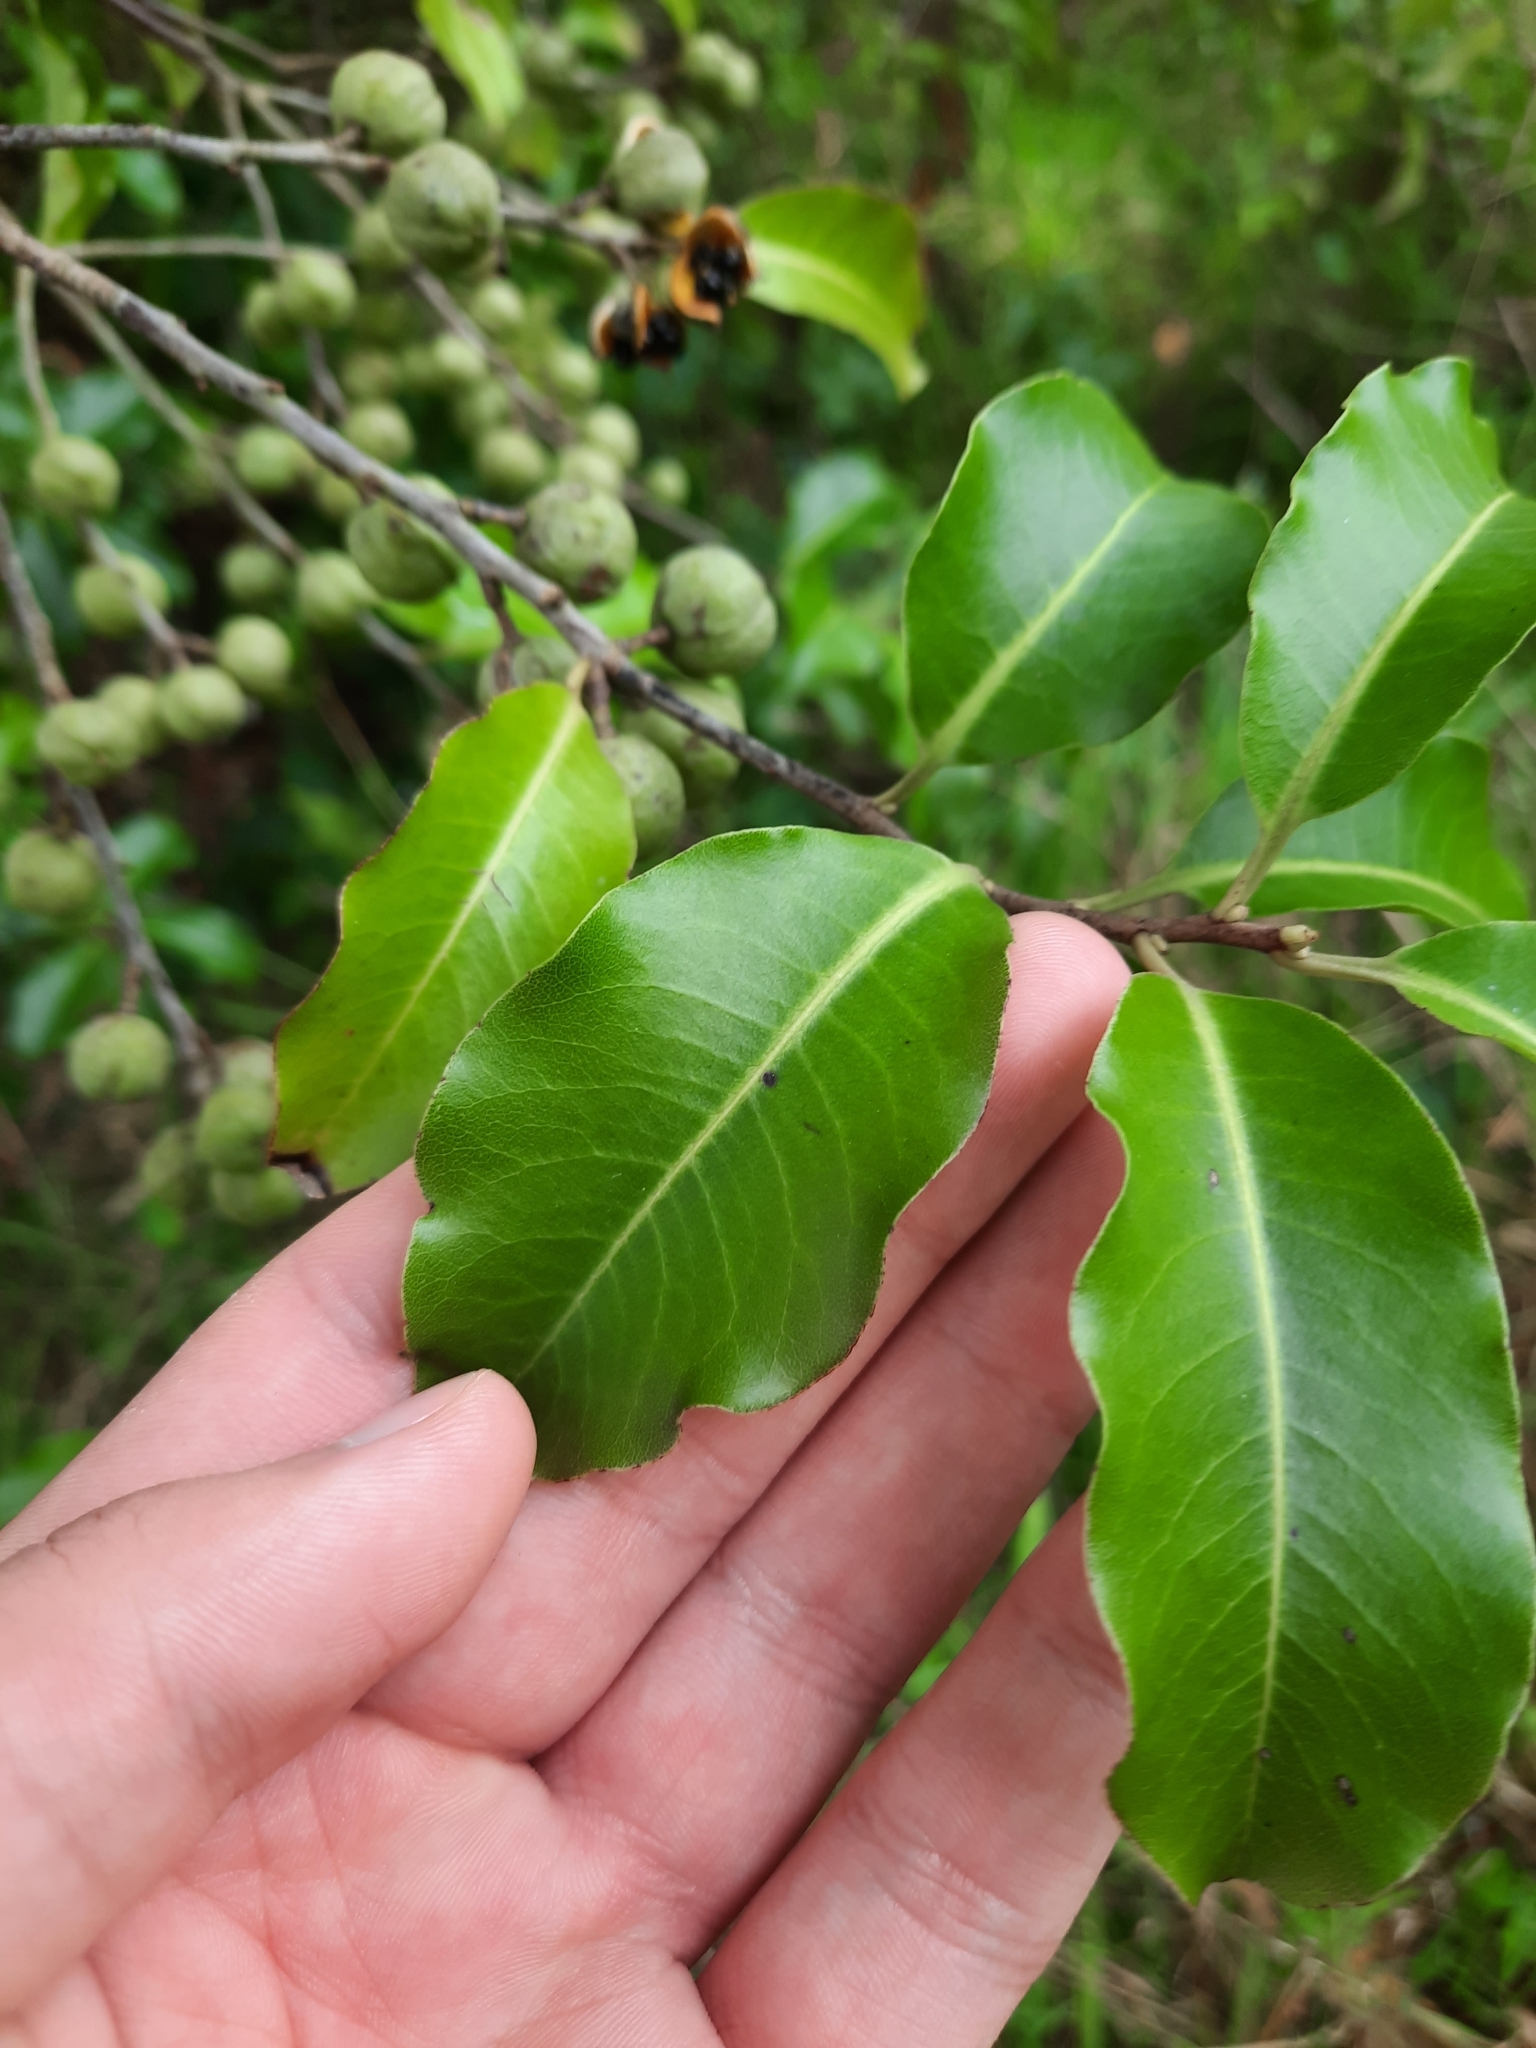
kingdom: Plantae
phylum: Tracheophyta
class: Magnoliopsida
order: Apiales
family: Pittosporaceae
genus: Pittosporum
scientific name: Pittosporum tenuifolium
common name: Kohuhu
